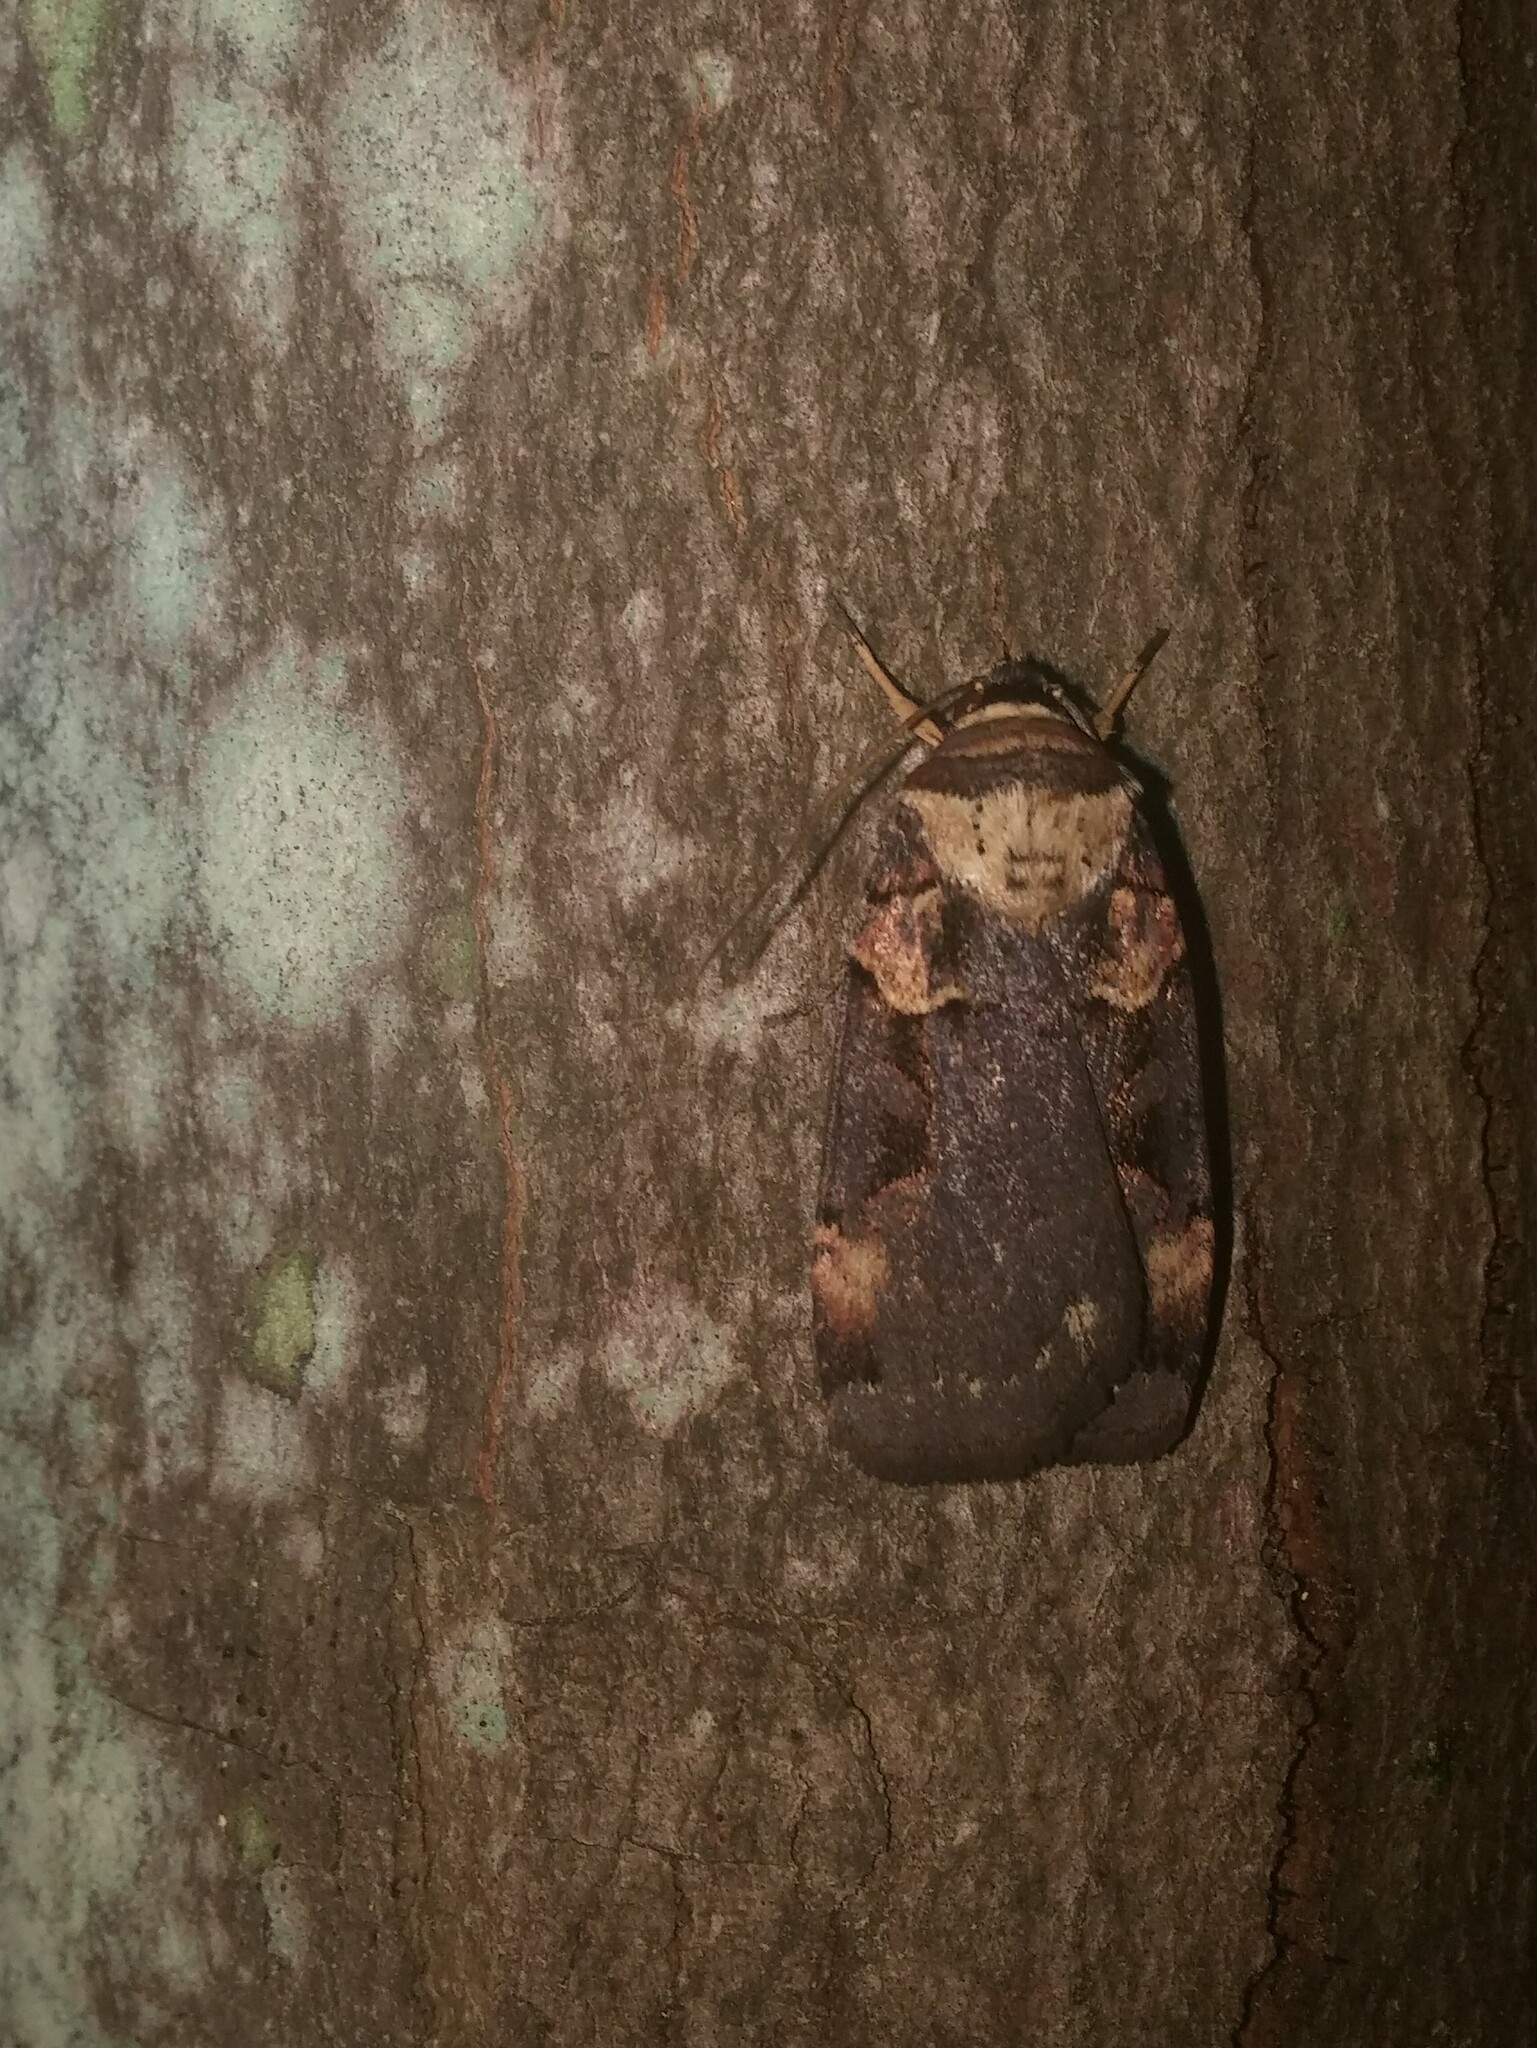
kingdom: Animalia
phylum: Arthropoda
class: Insecta
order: Lepidoptera
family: Noctuidae
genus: Pseudohermonassa
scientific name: Pseudohermonassa bicarnea
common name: Pink spotted dart
